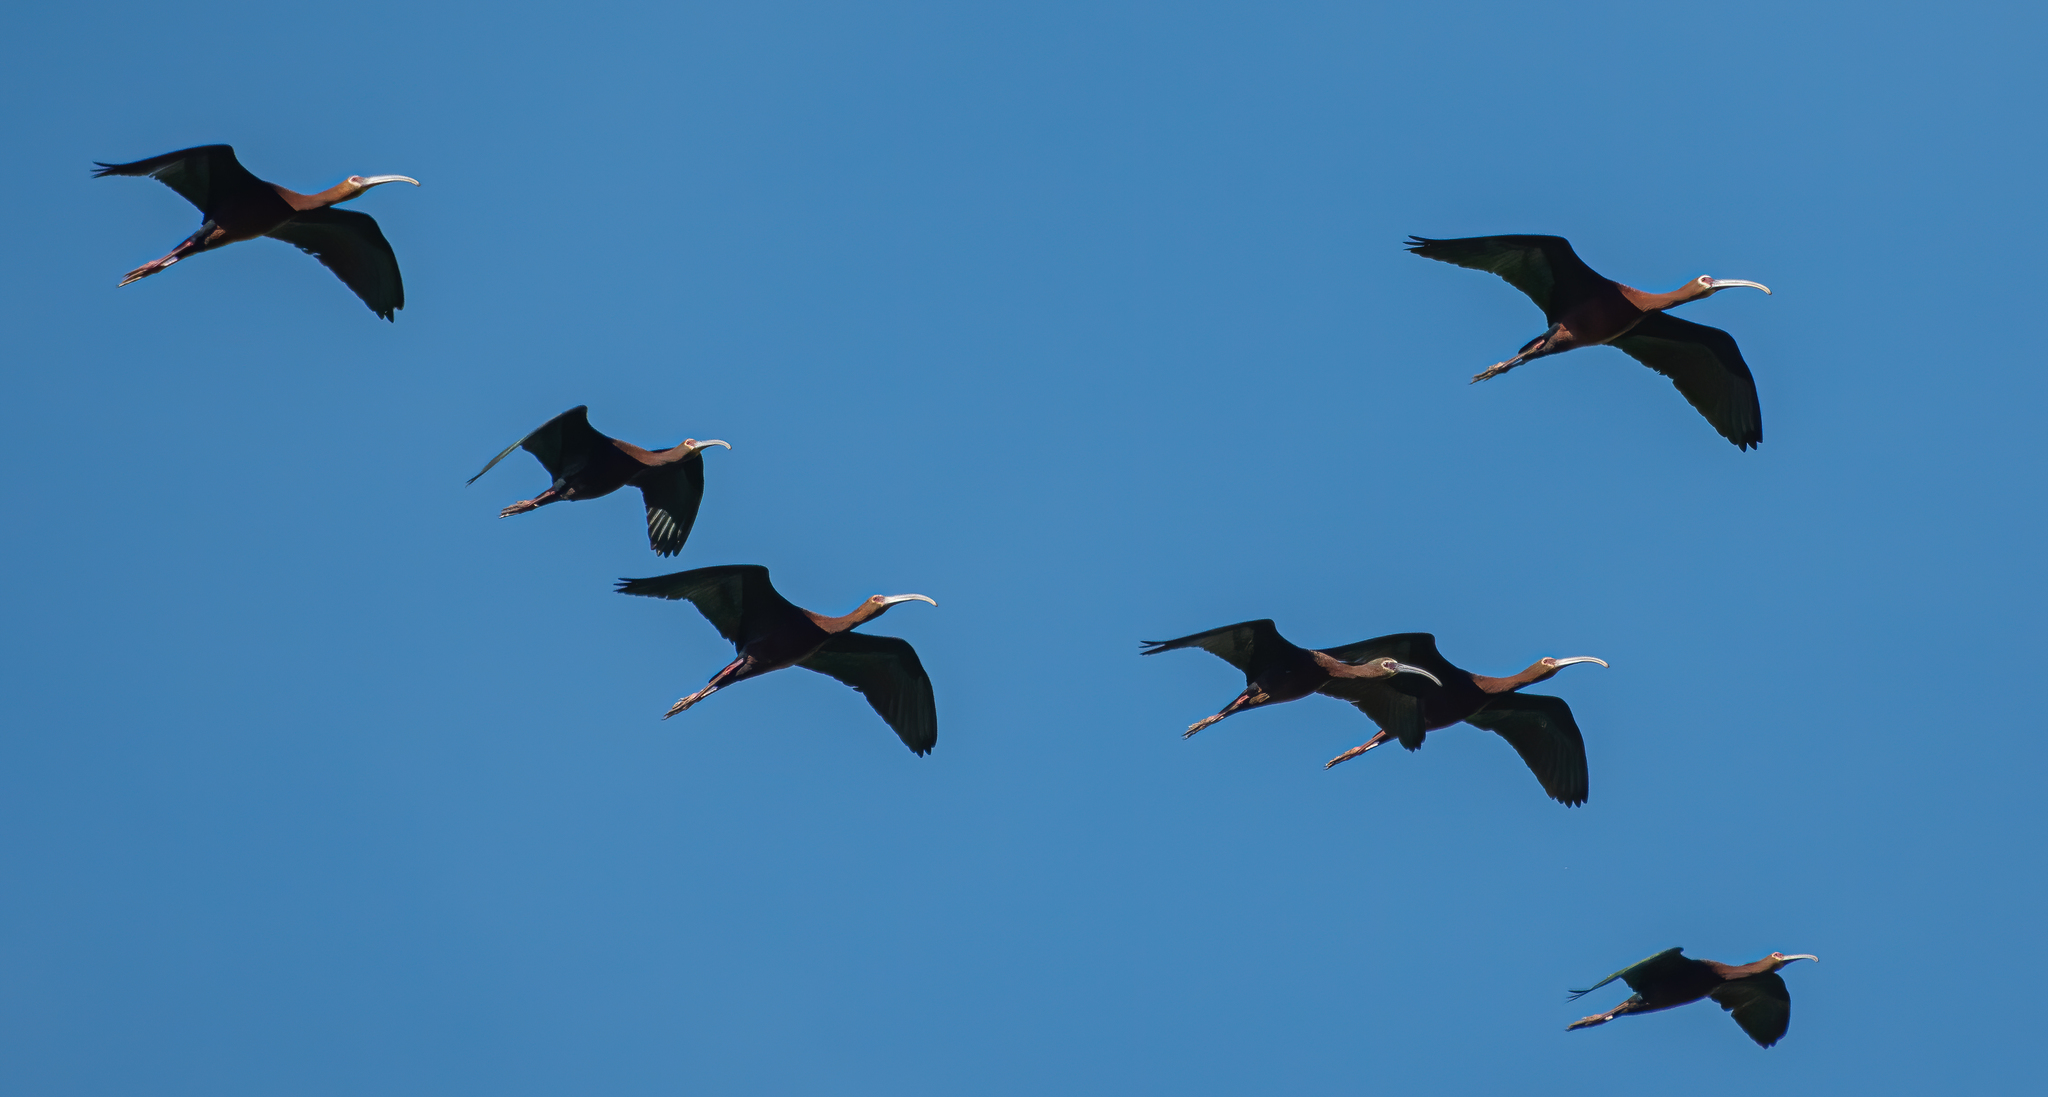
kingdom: Animalia
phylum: Chordata
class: Aves
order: Pelecaniformes
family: Threskiornithidae
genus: Plegadis
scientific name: Plegadis chihi
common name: White-faced ibis
